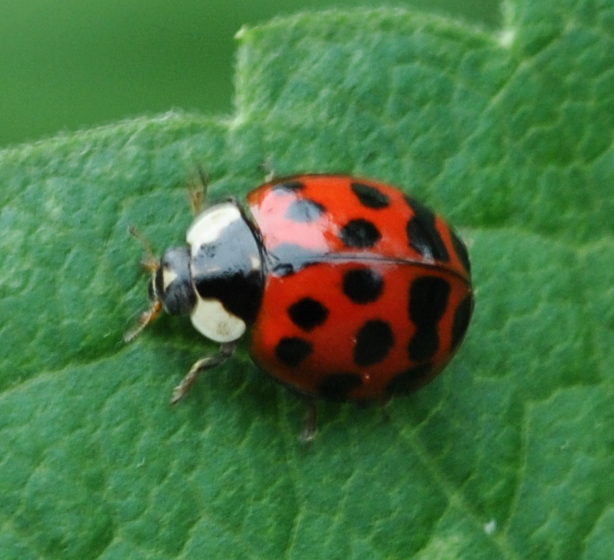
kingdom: Animalia
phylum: Arthropoda
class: Insecta
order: Coleoptera
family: Coccinellidae
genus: Harmonia
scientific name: Harmonia axyridis
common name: Harlequin ladybird
